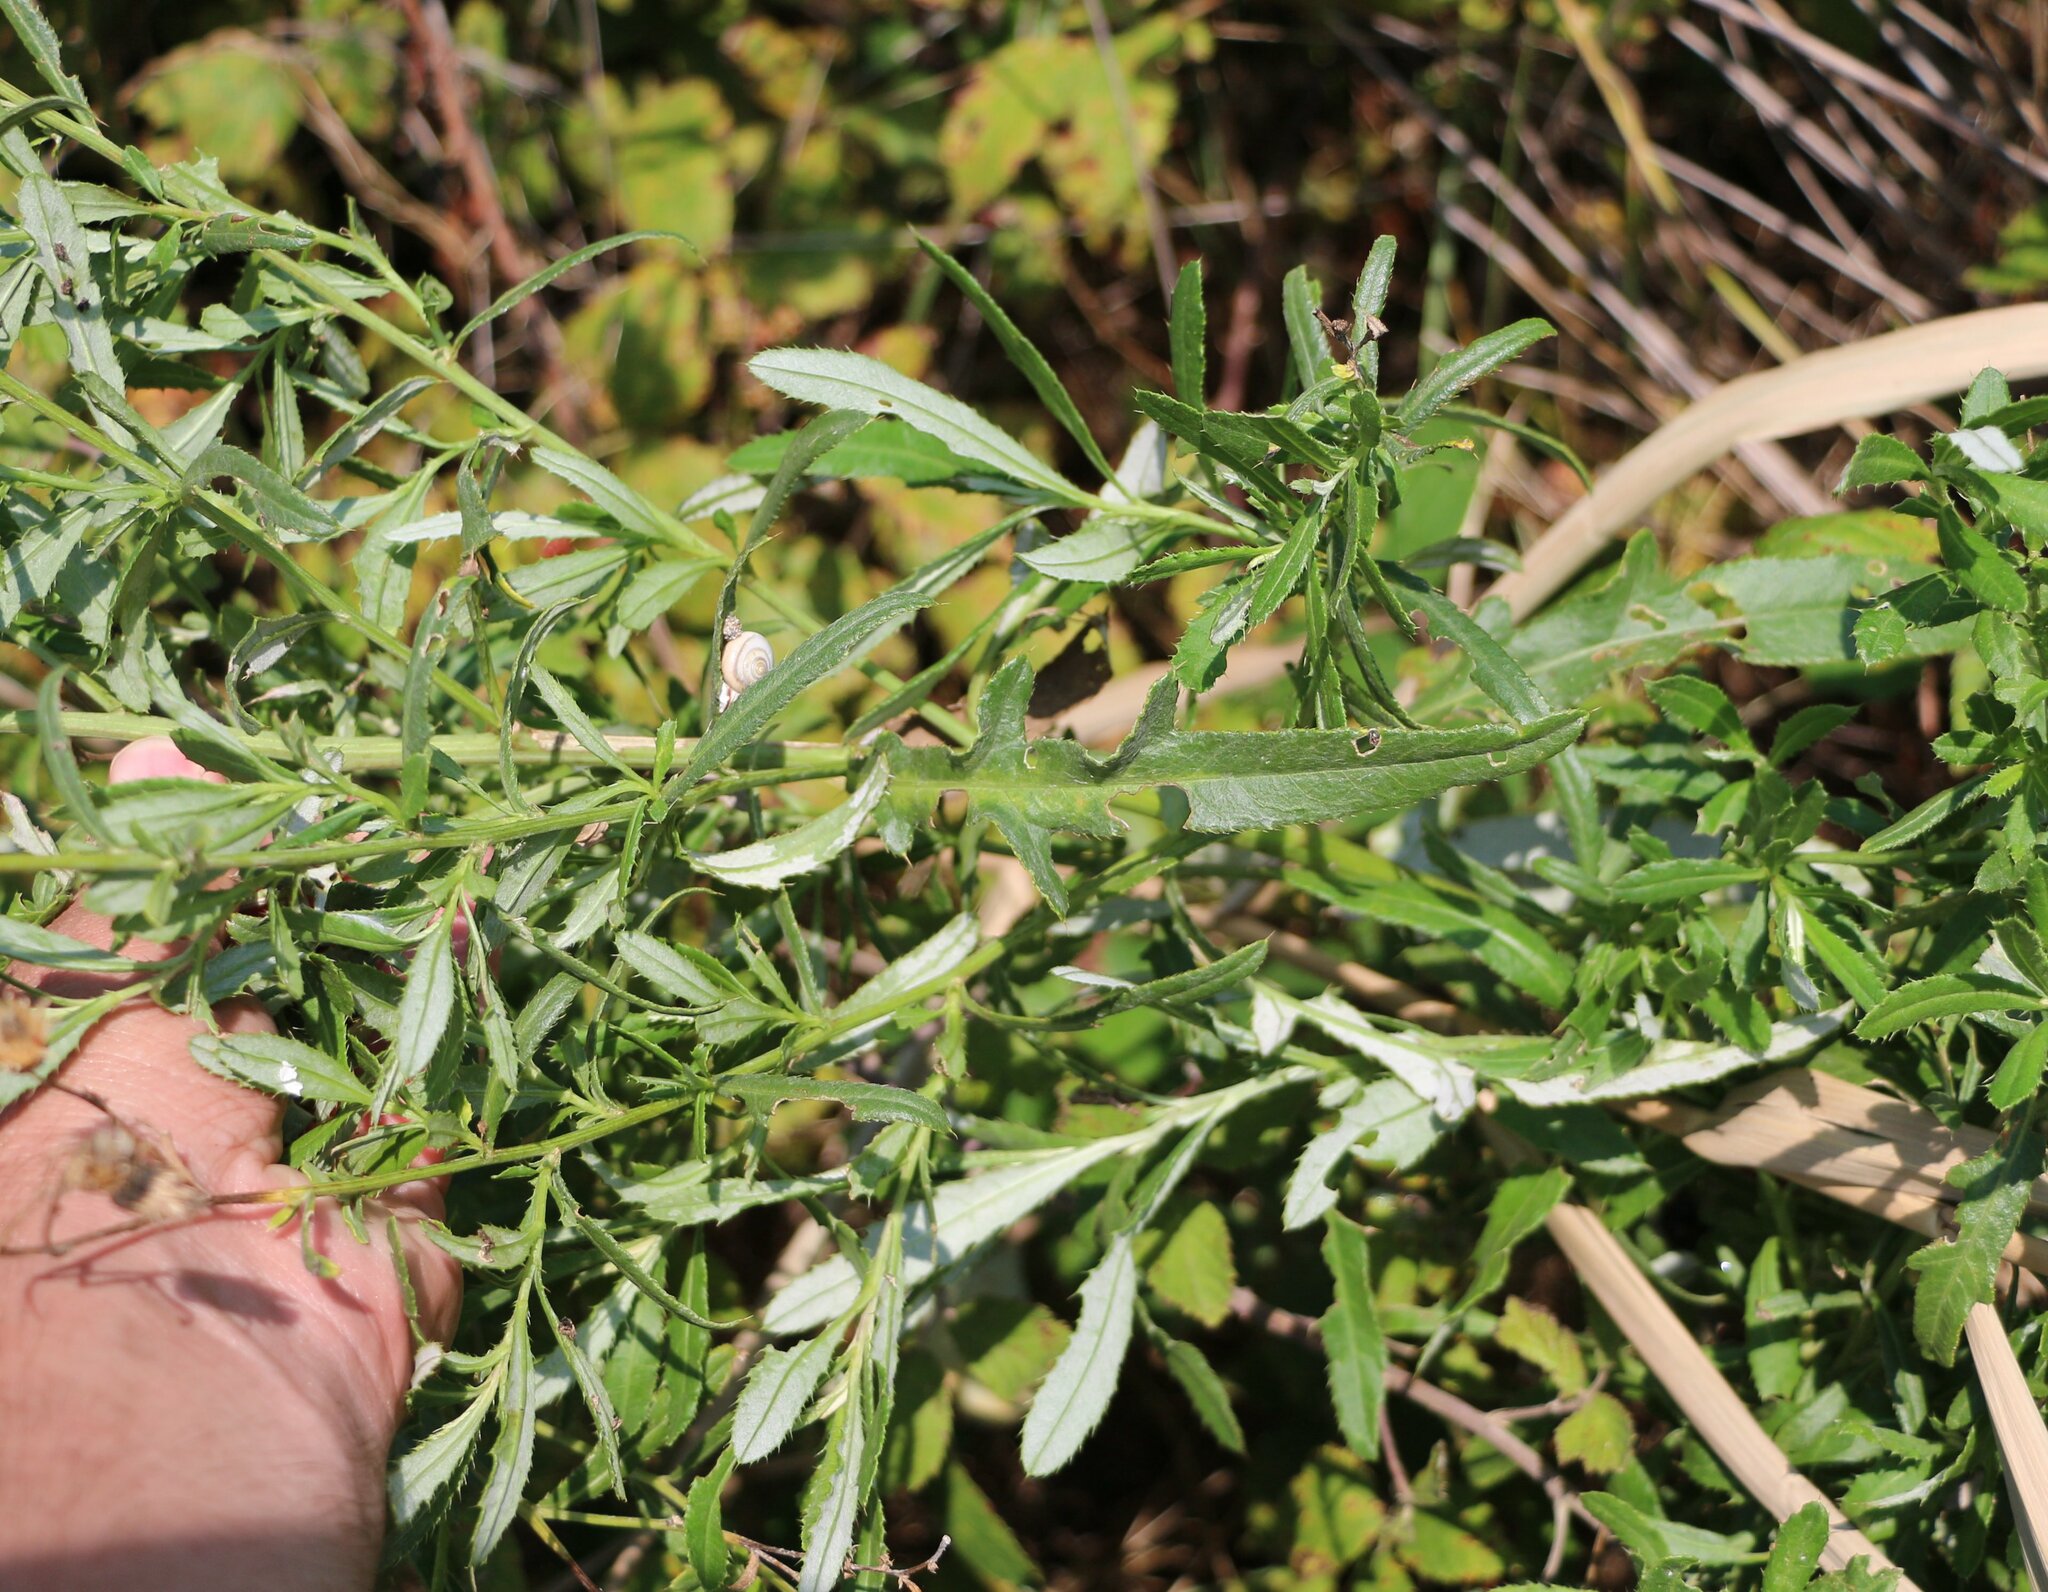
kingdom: Plantae
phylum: Tracheophyta
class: Magnoliopsida
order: Asterales
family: Asteraceae
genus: Cirsium
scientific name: Cirsium arvense
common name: Creeping thistle
